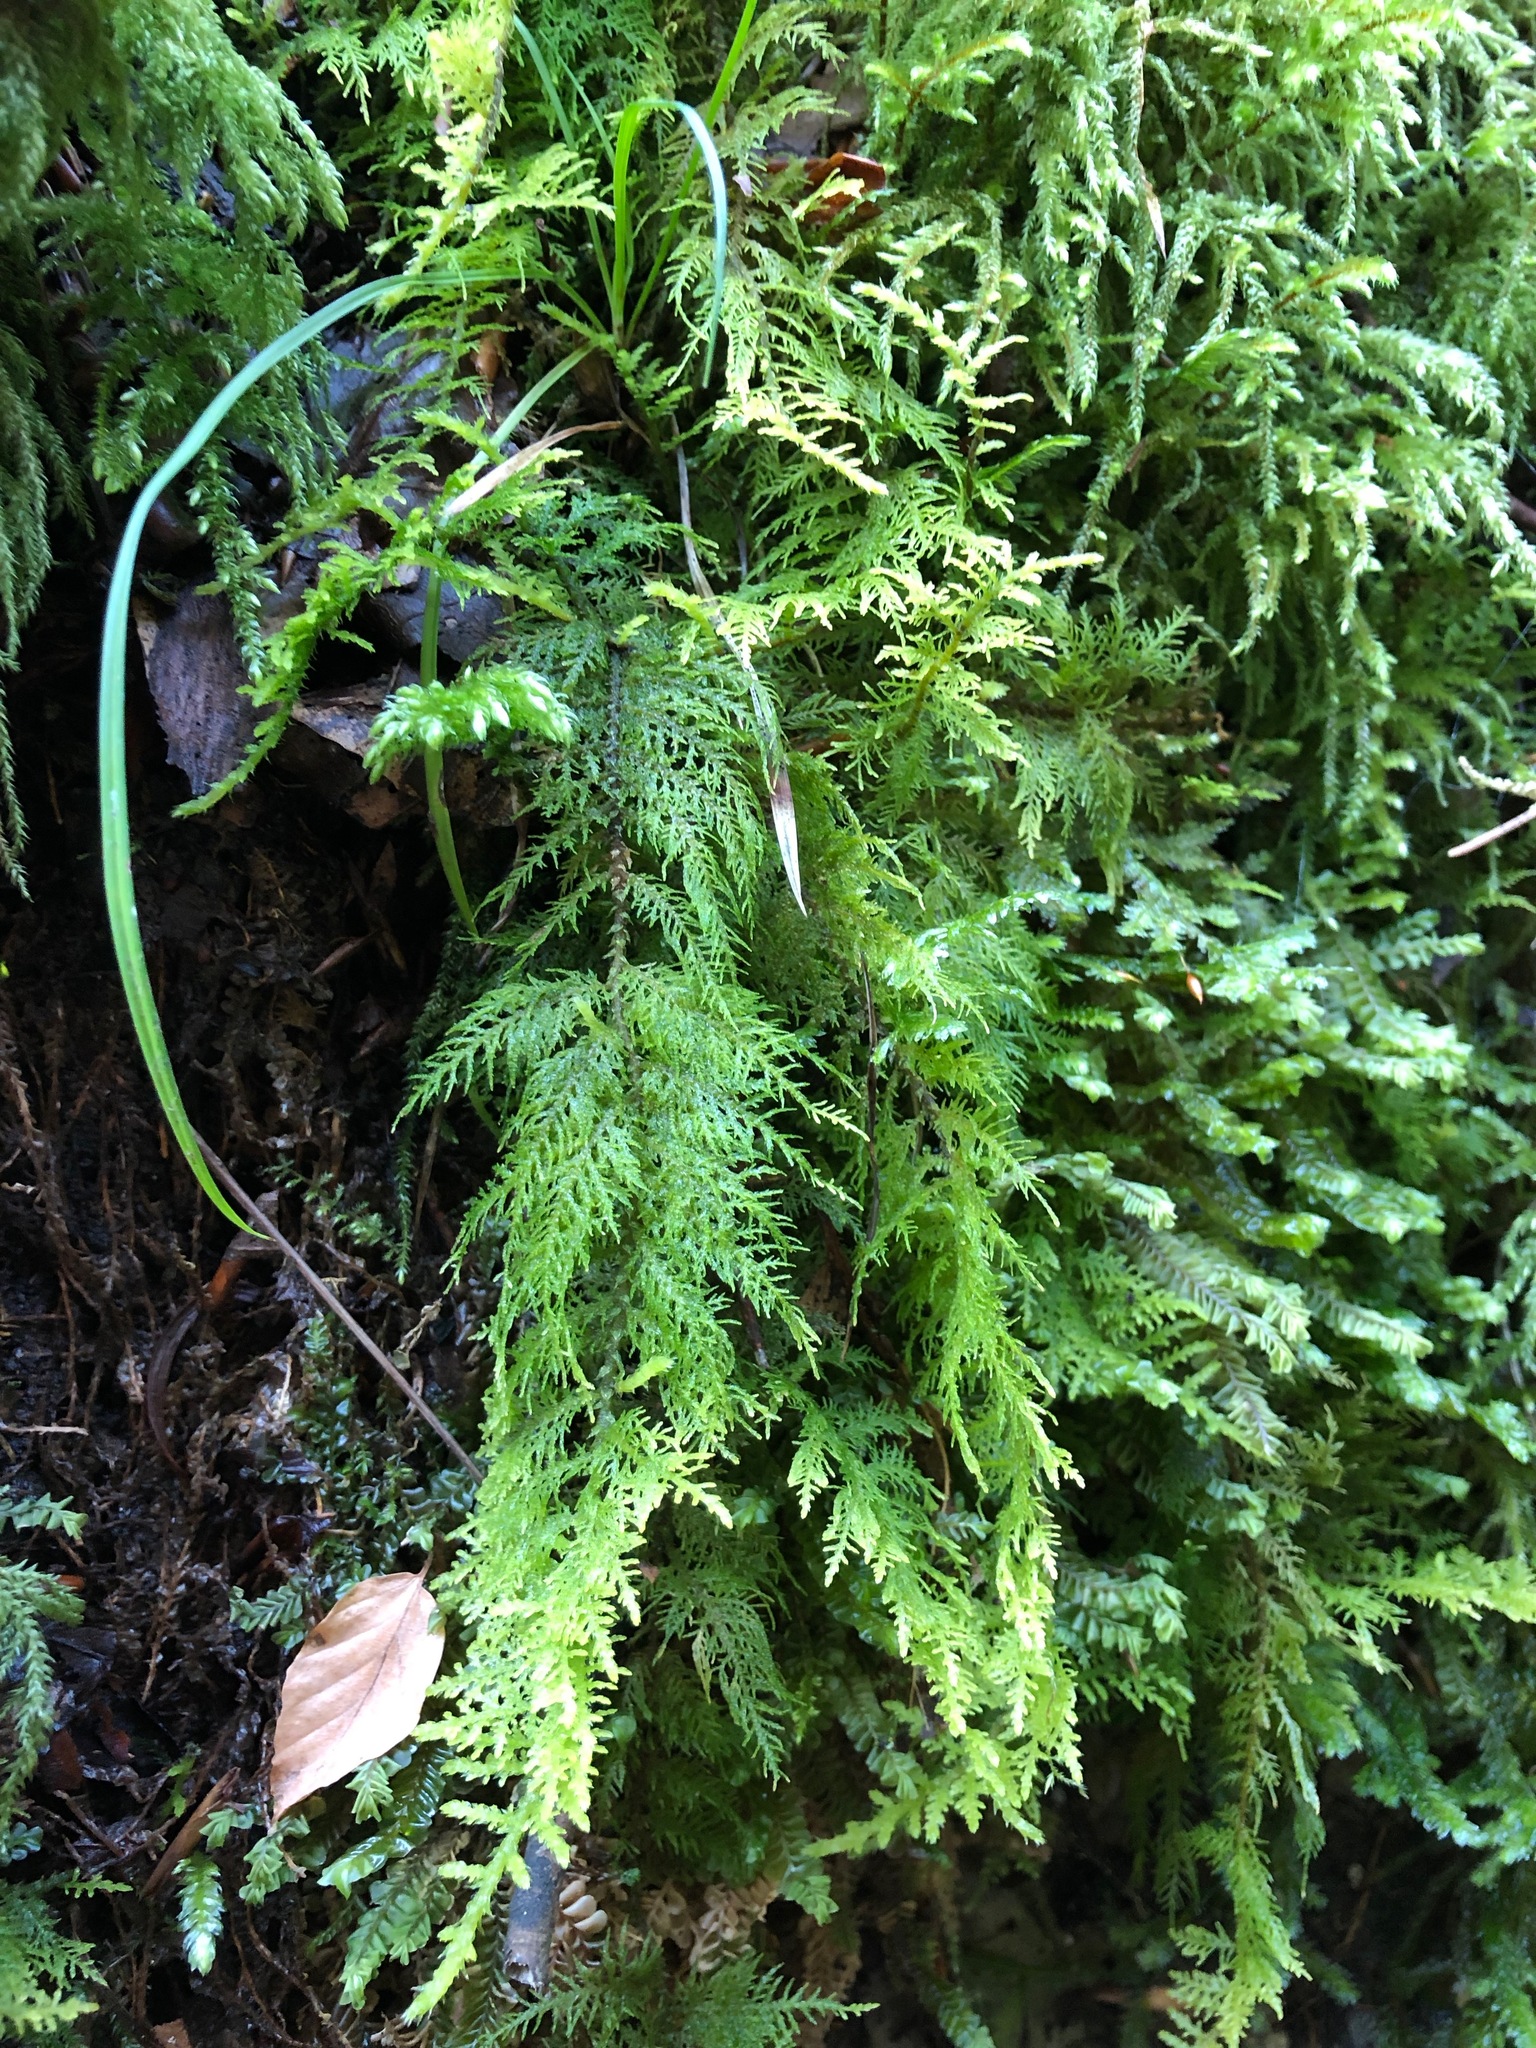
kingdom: Plantae
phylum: Bryophyta
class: Bryopsida
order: Hypnales
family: Thuidiaceae
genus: Thuidium
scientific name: Thuidium tamariscinum
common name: Common tamarisk-moss
